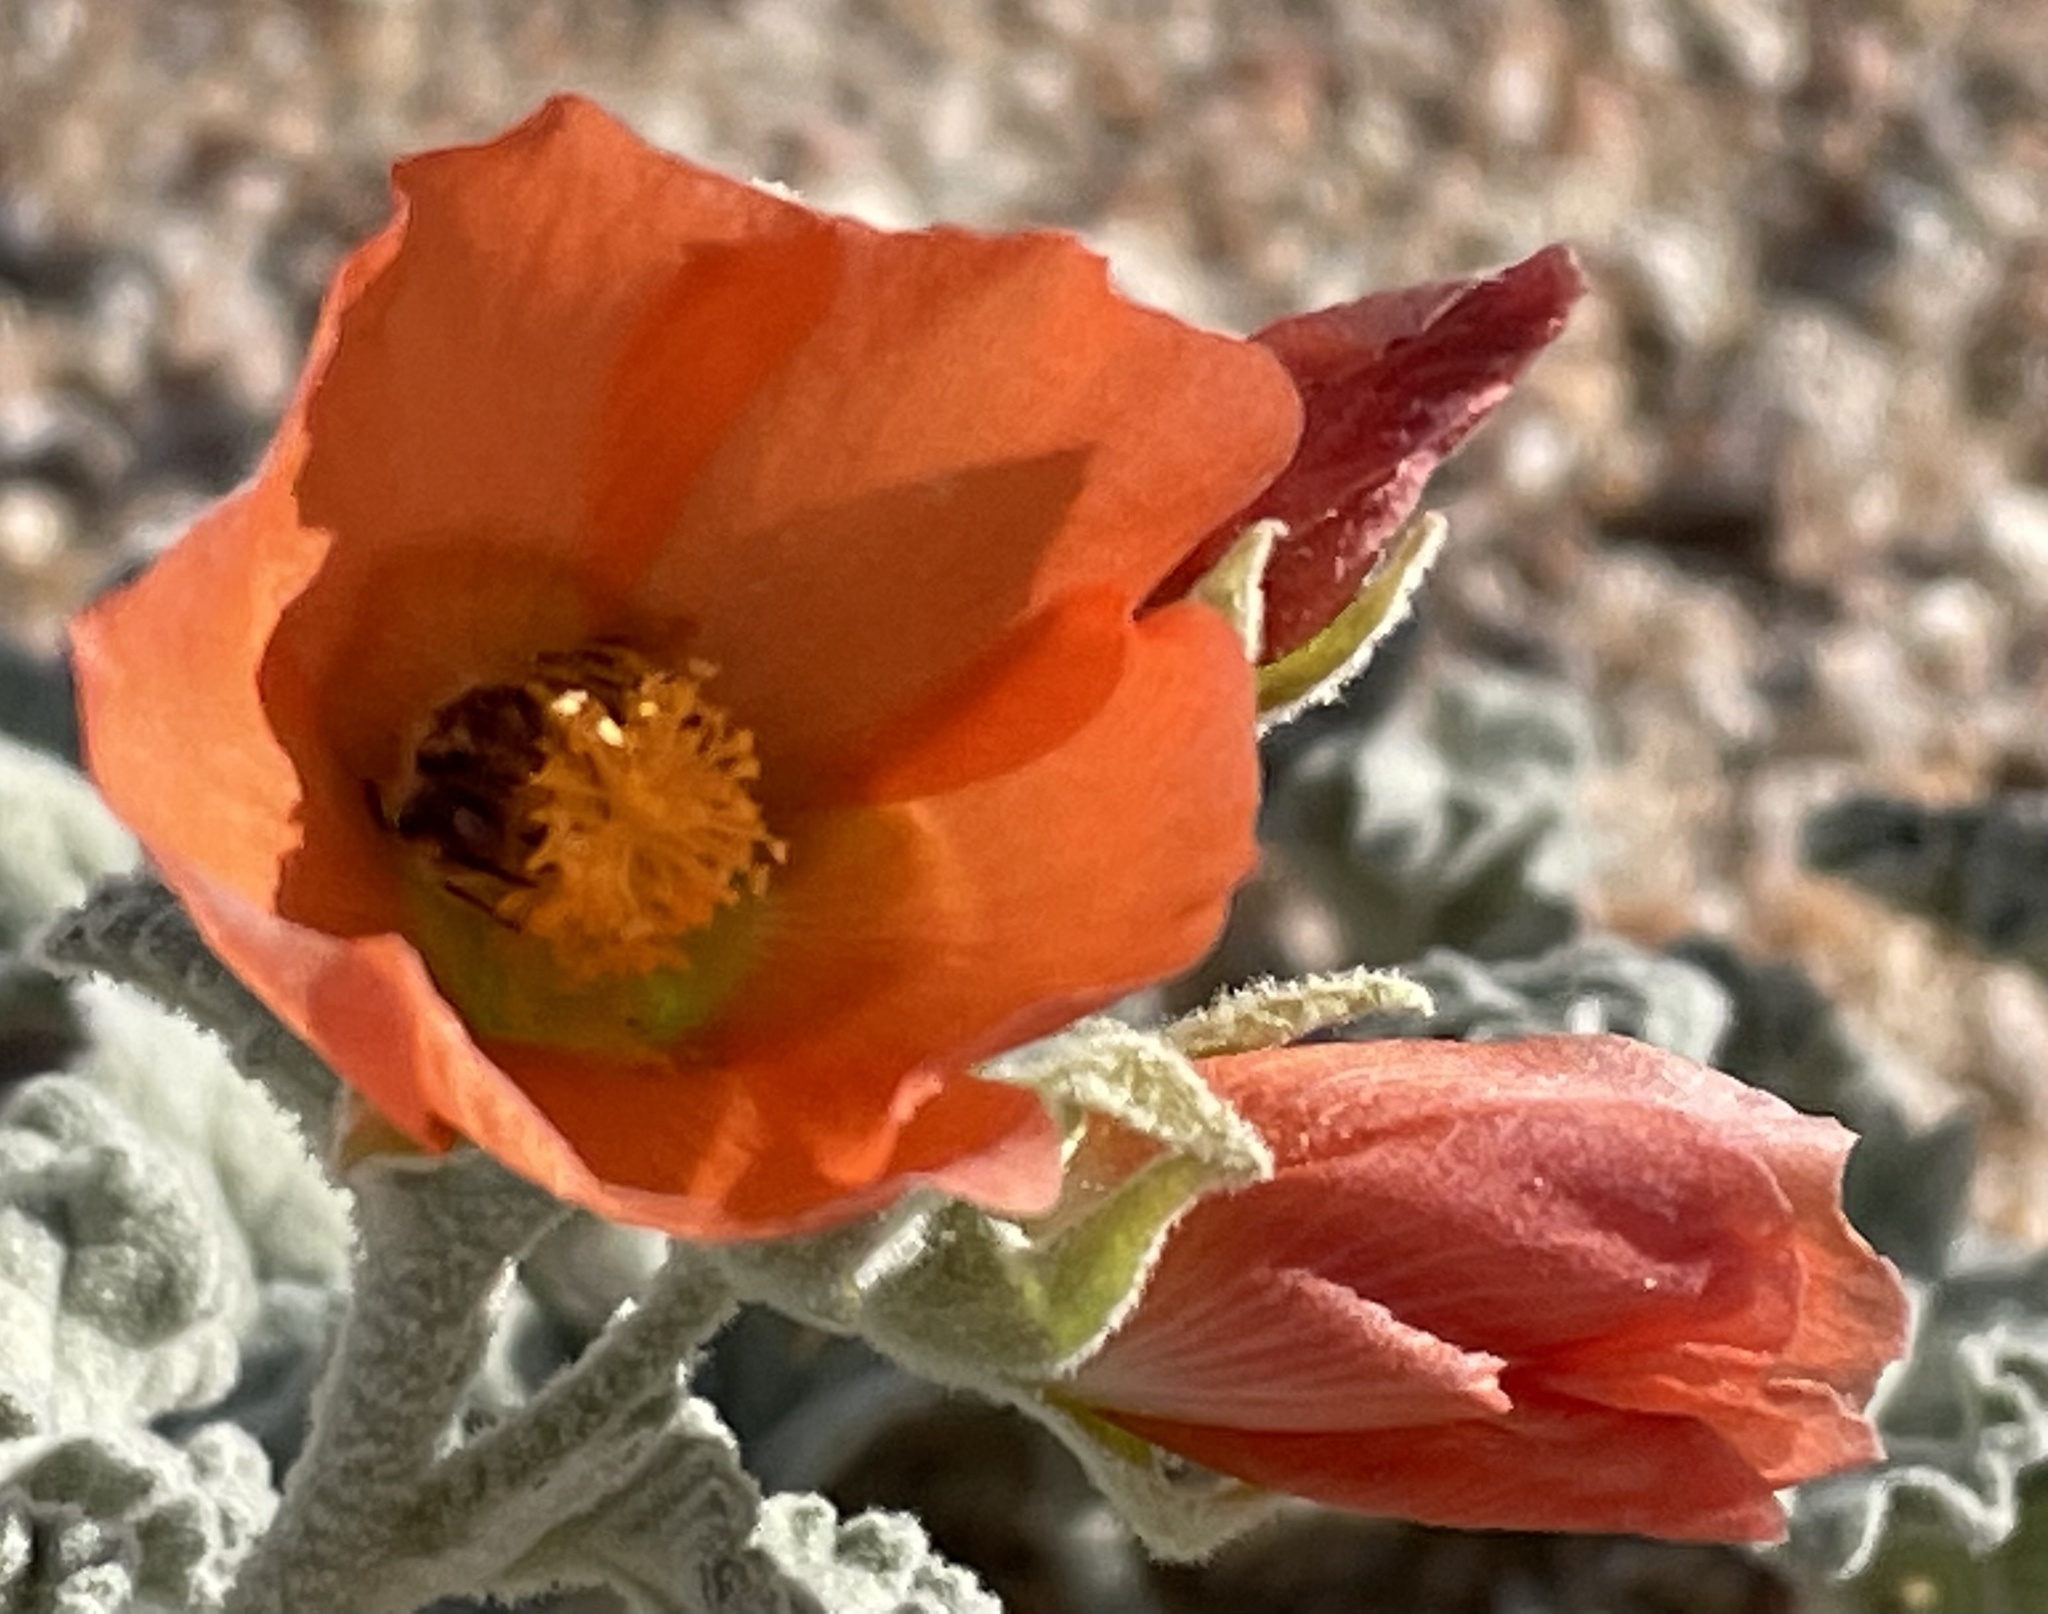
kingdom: Plantae
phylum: Tracheophyta
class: Magnoliopsida
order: Malvales
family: Malvaceae
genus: Sphaeralcea
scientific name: Sphaeralcea ambigua
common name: Apricot globe-mallow
